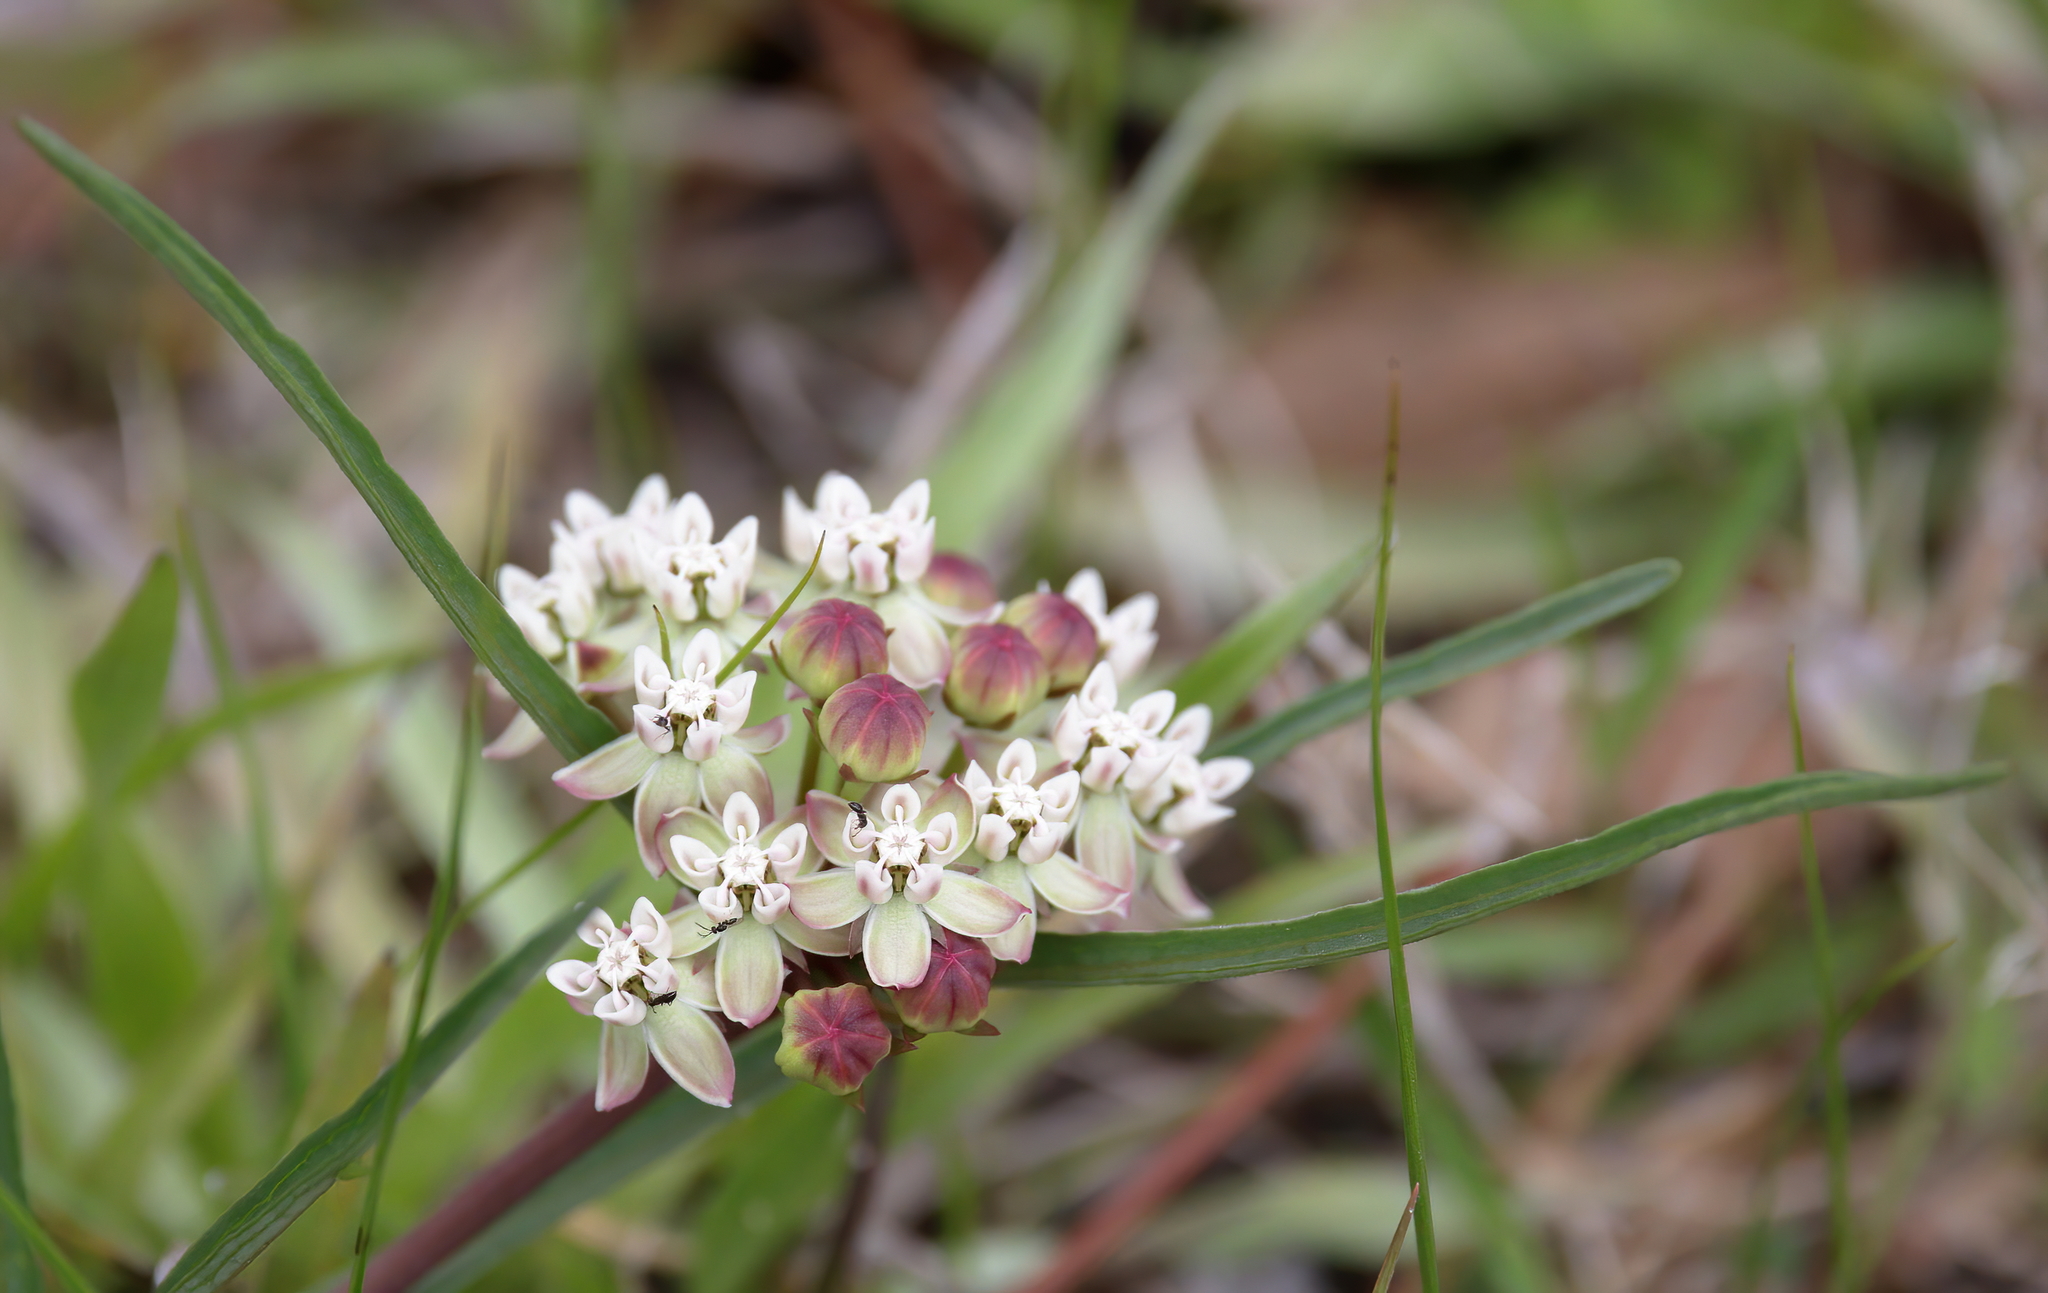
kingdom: Plantae
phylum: Tracheophyta
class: Magnoliopsida
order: Gentianales
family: Apocynaceae
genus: Asclepias
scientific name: Asclepias michauxii
